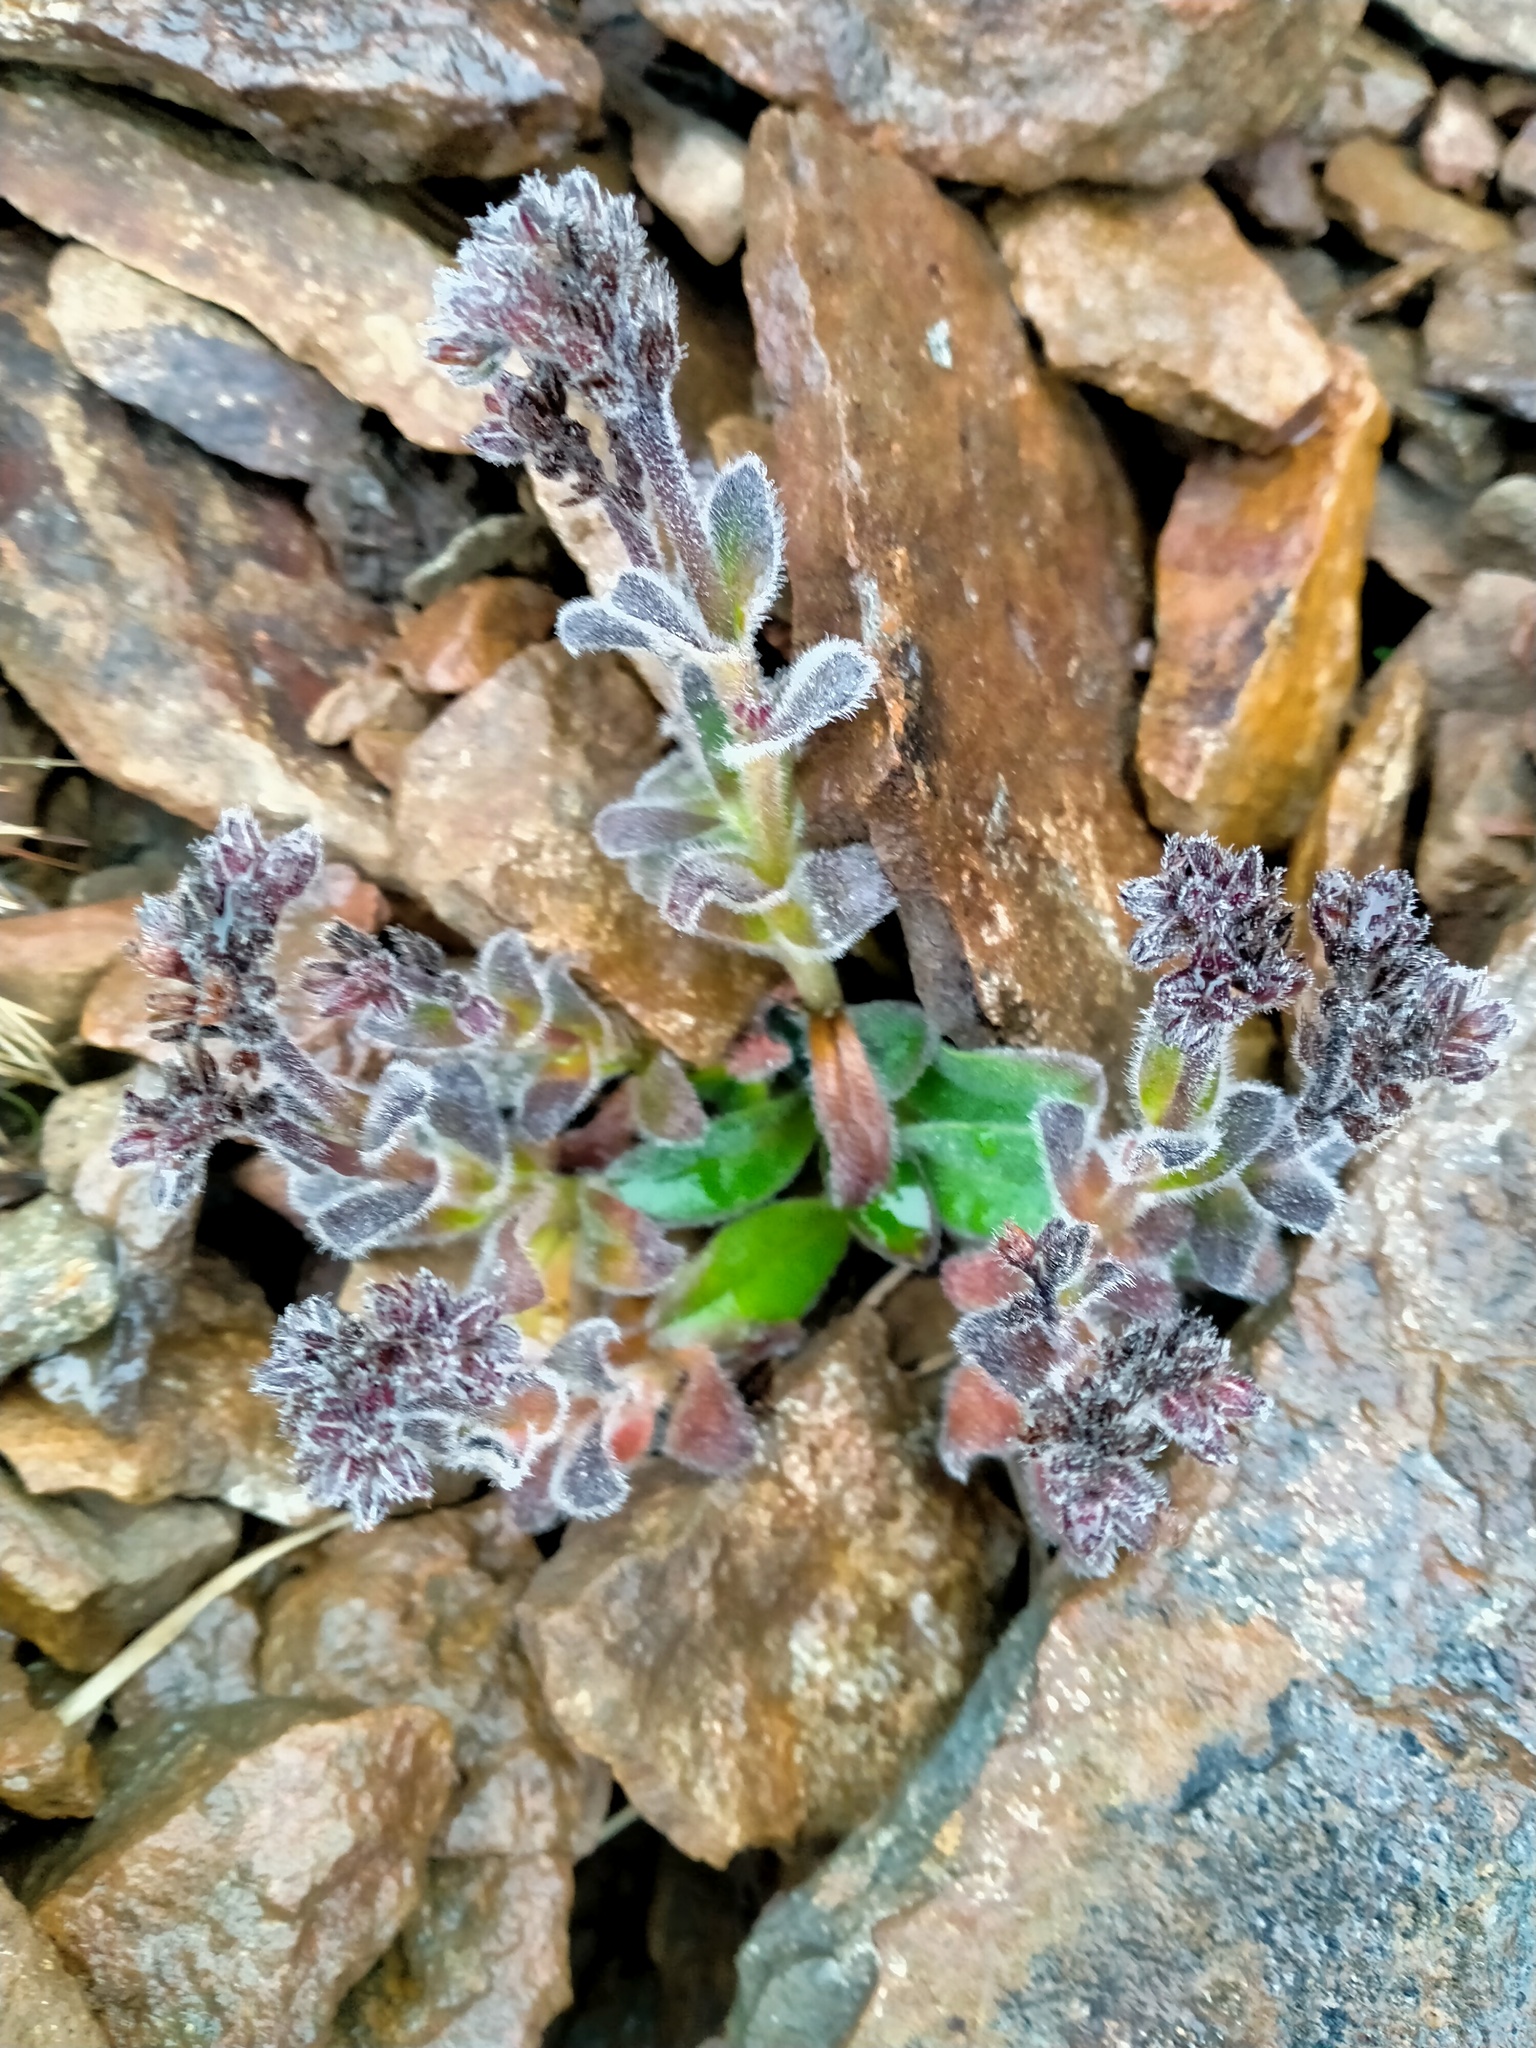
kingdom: Plantae
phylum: Tracheophyta
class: Magnoliopsida
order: Boraginales
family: Boraginaceae
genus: Myosotis
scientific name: Myosotis capitata
